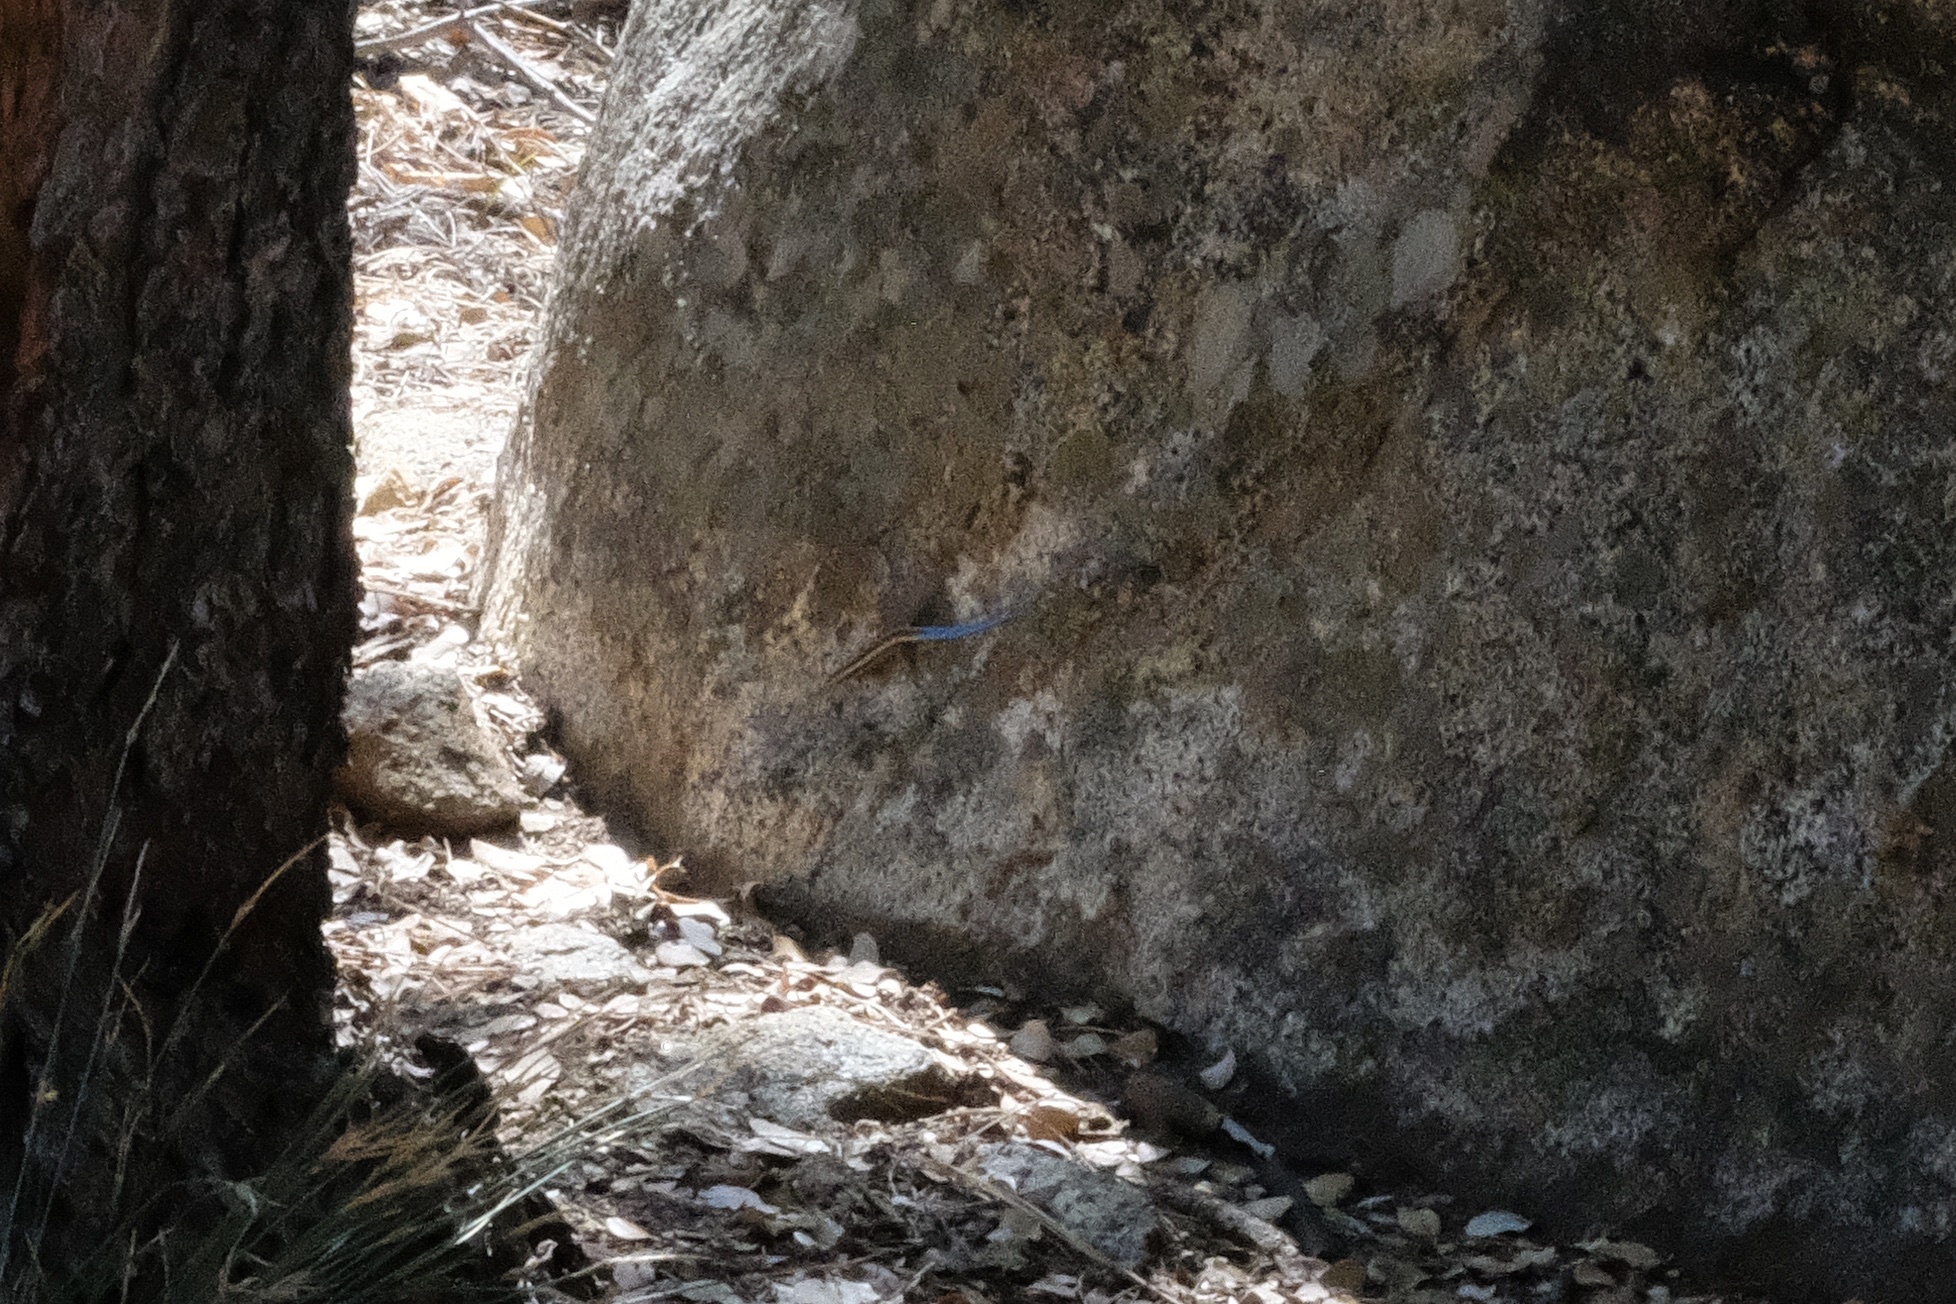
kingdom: Animalia
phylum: Chordata
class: Squamata
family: Scincidae
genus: Plestiodon
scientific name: Plestiodon skiltonianus
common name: Coronado island skink [interparietalis]
